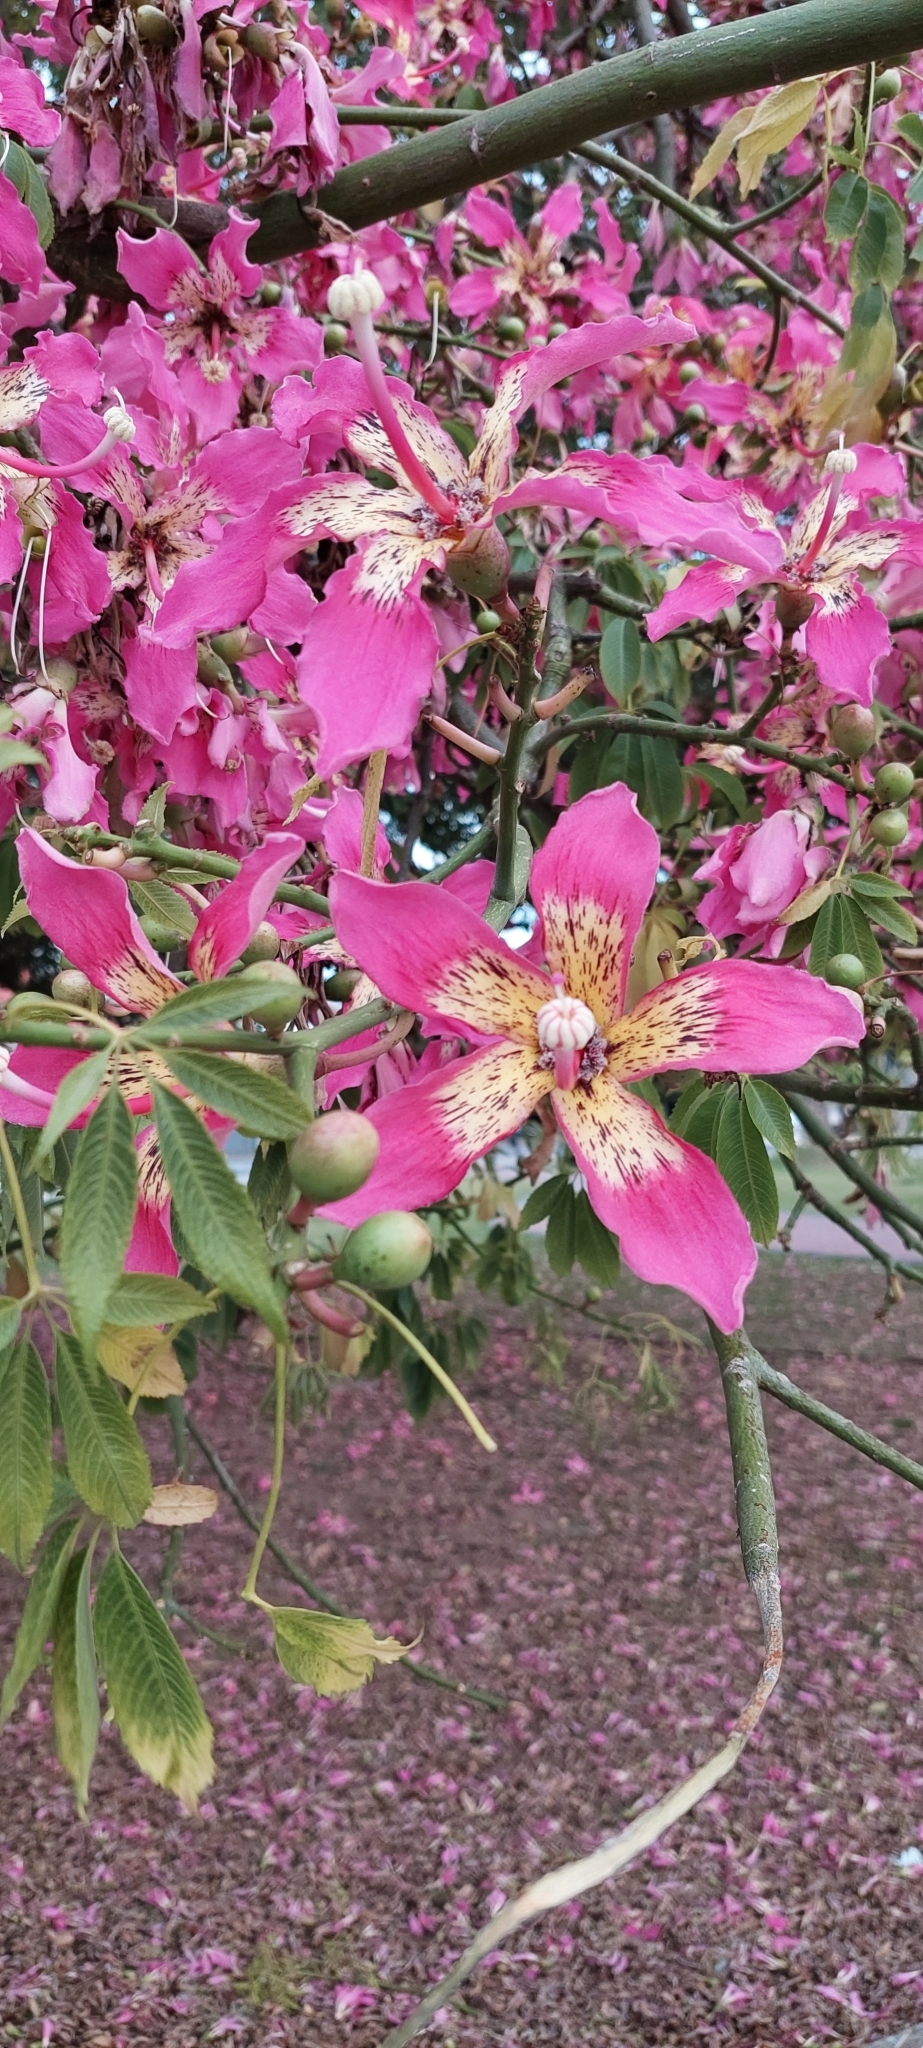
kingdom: Plantae
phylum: Tracheophyta
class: Magnoliopsida
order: Malvales
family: Malvaceae
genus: Ceiba
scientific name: Ceiba speciosa
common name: Silk-floss tree
